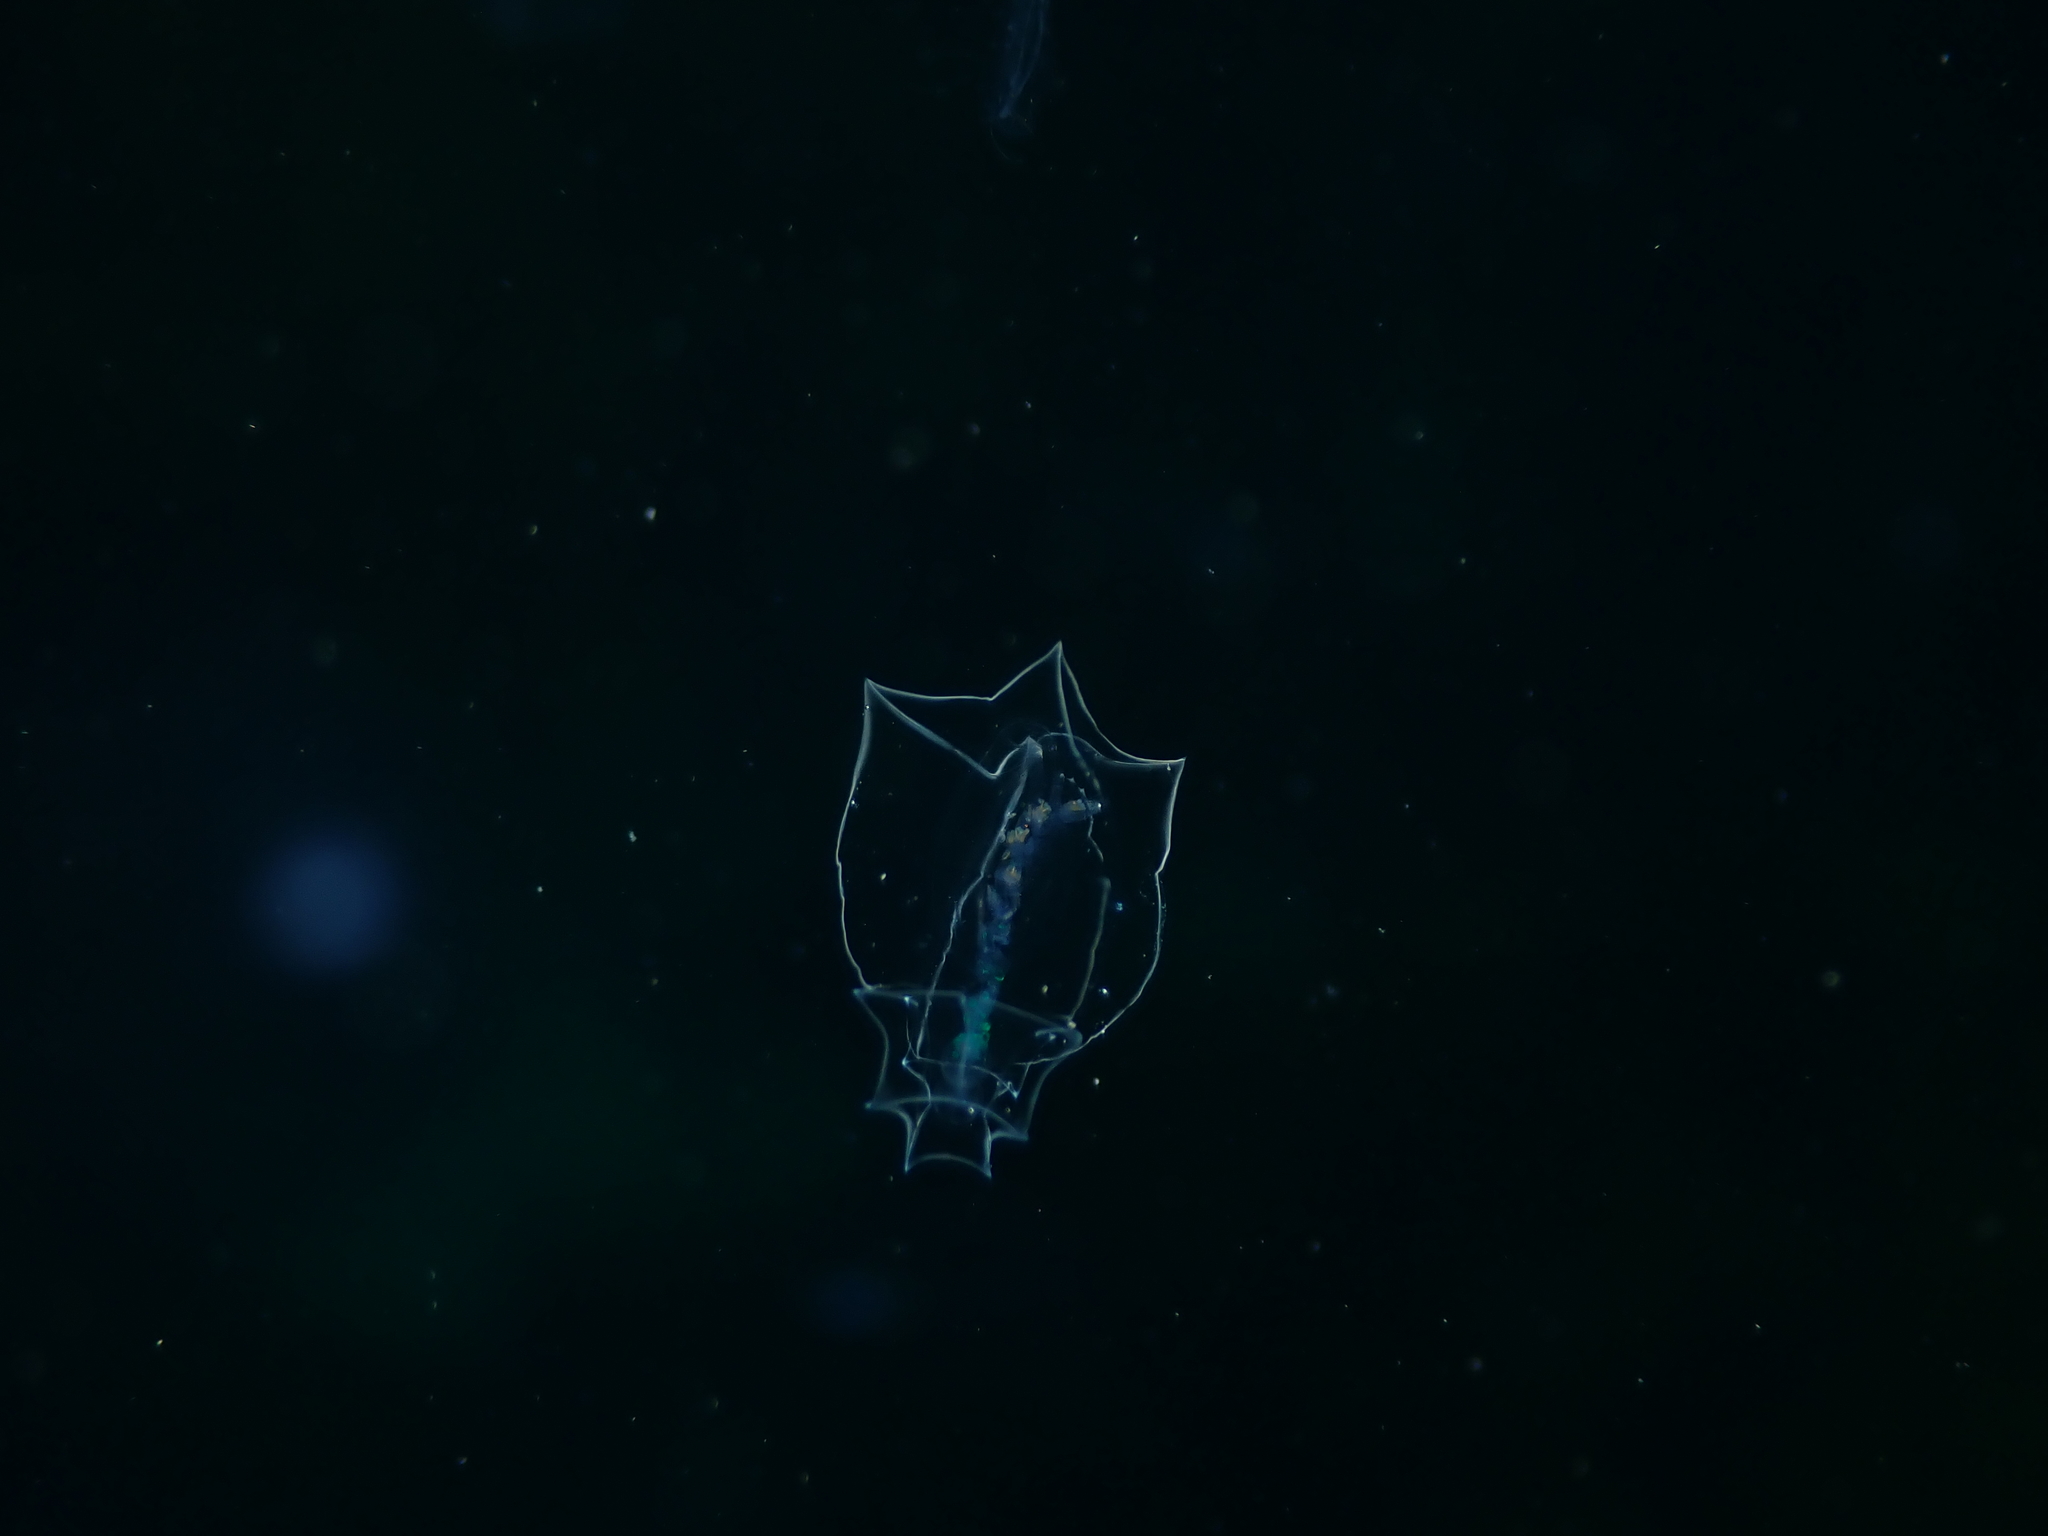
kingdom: Animalia
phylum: Cnidaria
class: Hydrozoa
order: Siphonophorae
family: Abylidae
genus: Bassia
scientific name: Bassia bassensis
